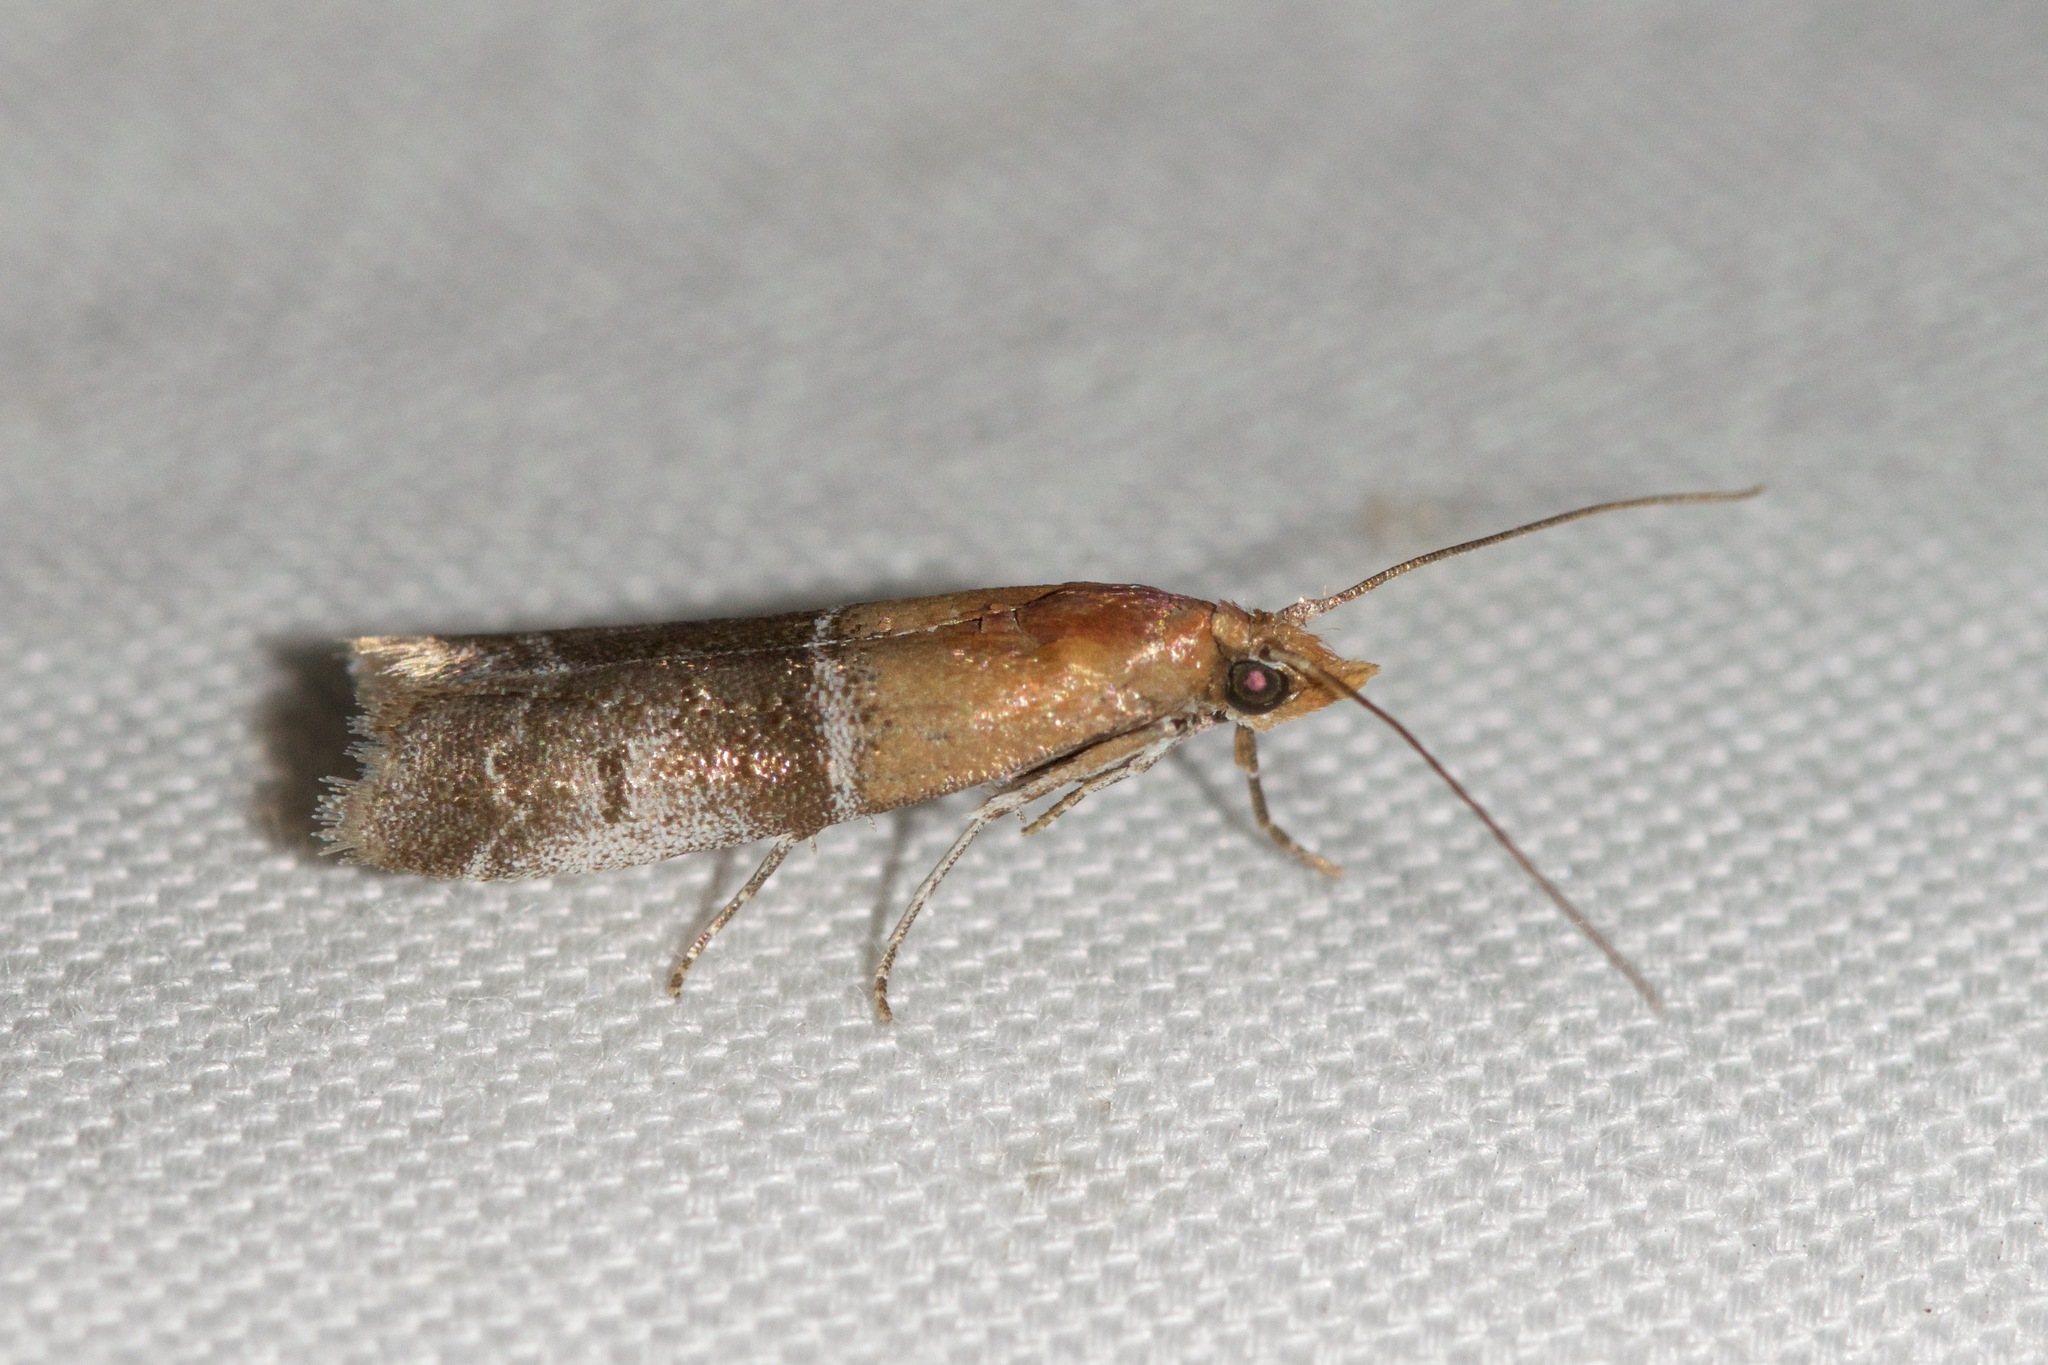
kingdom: Animalia
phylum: Arthropoda
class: Insecta
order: Lepidoptera
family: Pyralidae
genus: Moodna
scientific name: Moodna pallidostrinella
